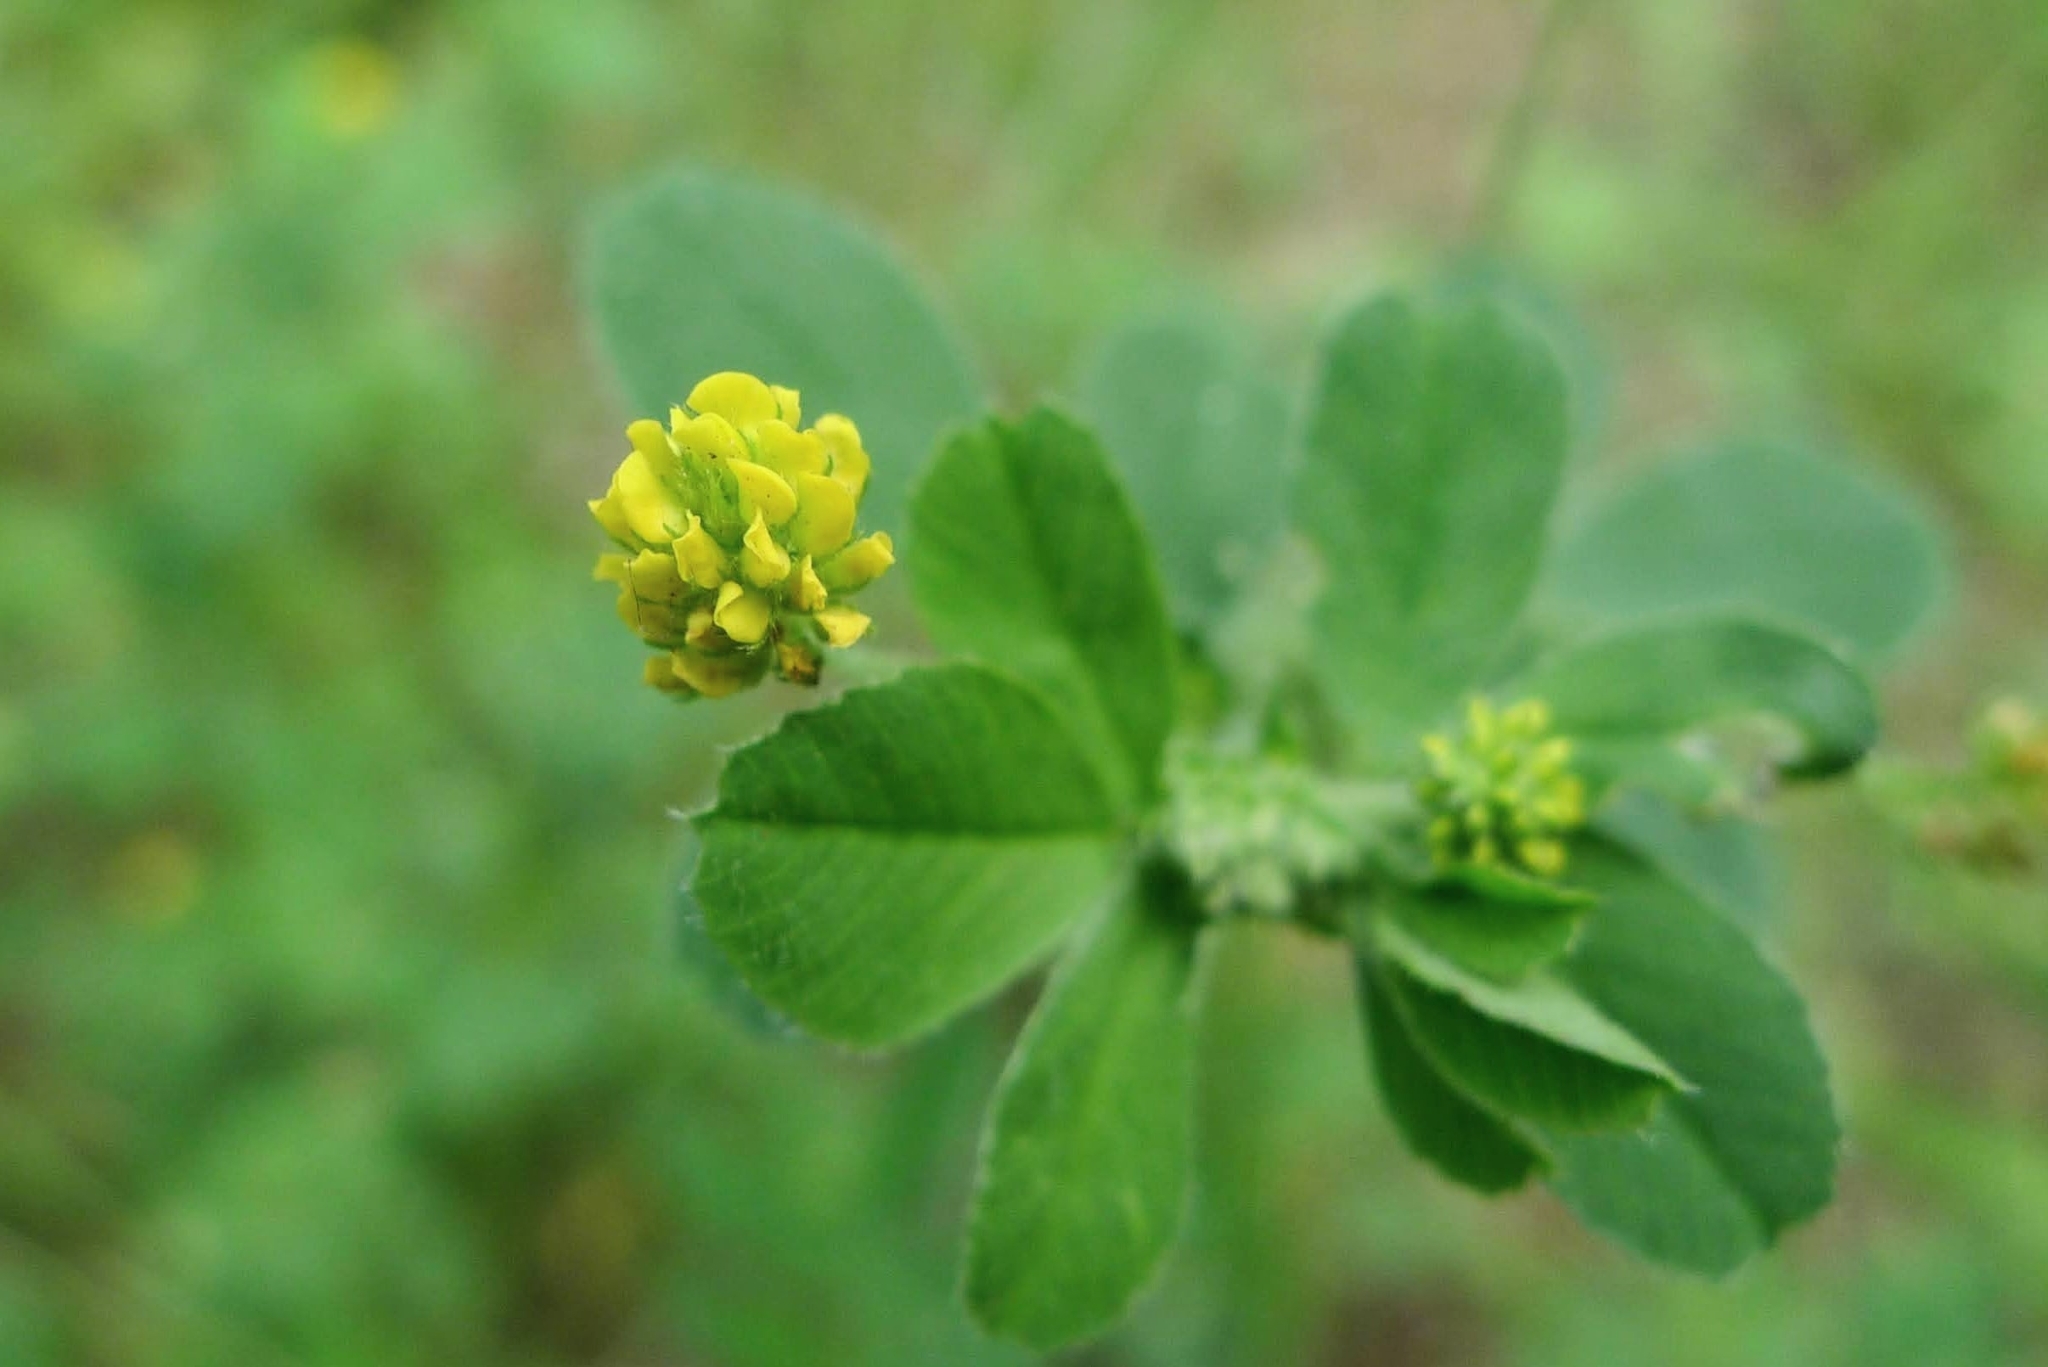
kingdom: Plantae
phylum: Tracheophyta
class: Magnoliopsida
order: Fabales
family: Fabaceae
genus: Medicago
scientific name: Medicago lupulina
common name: Black medick
